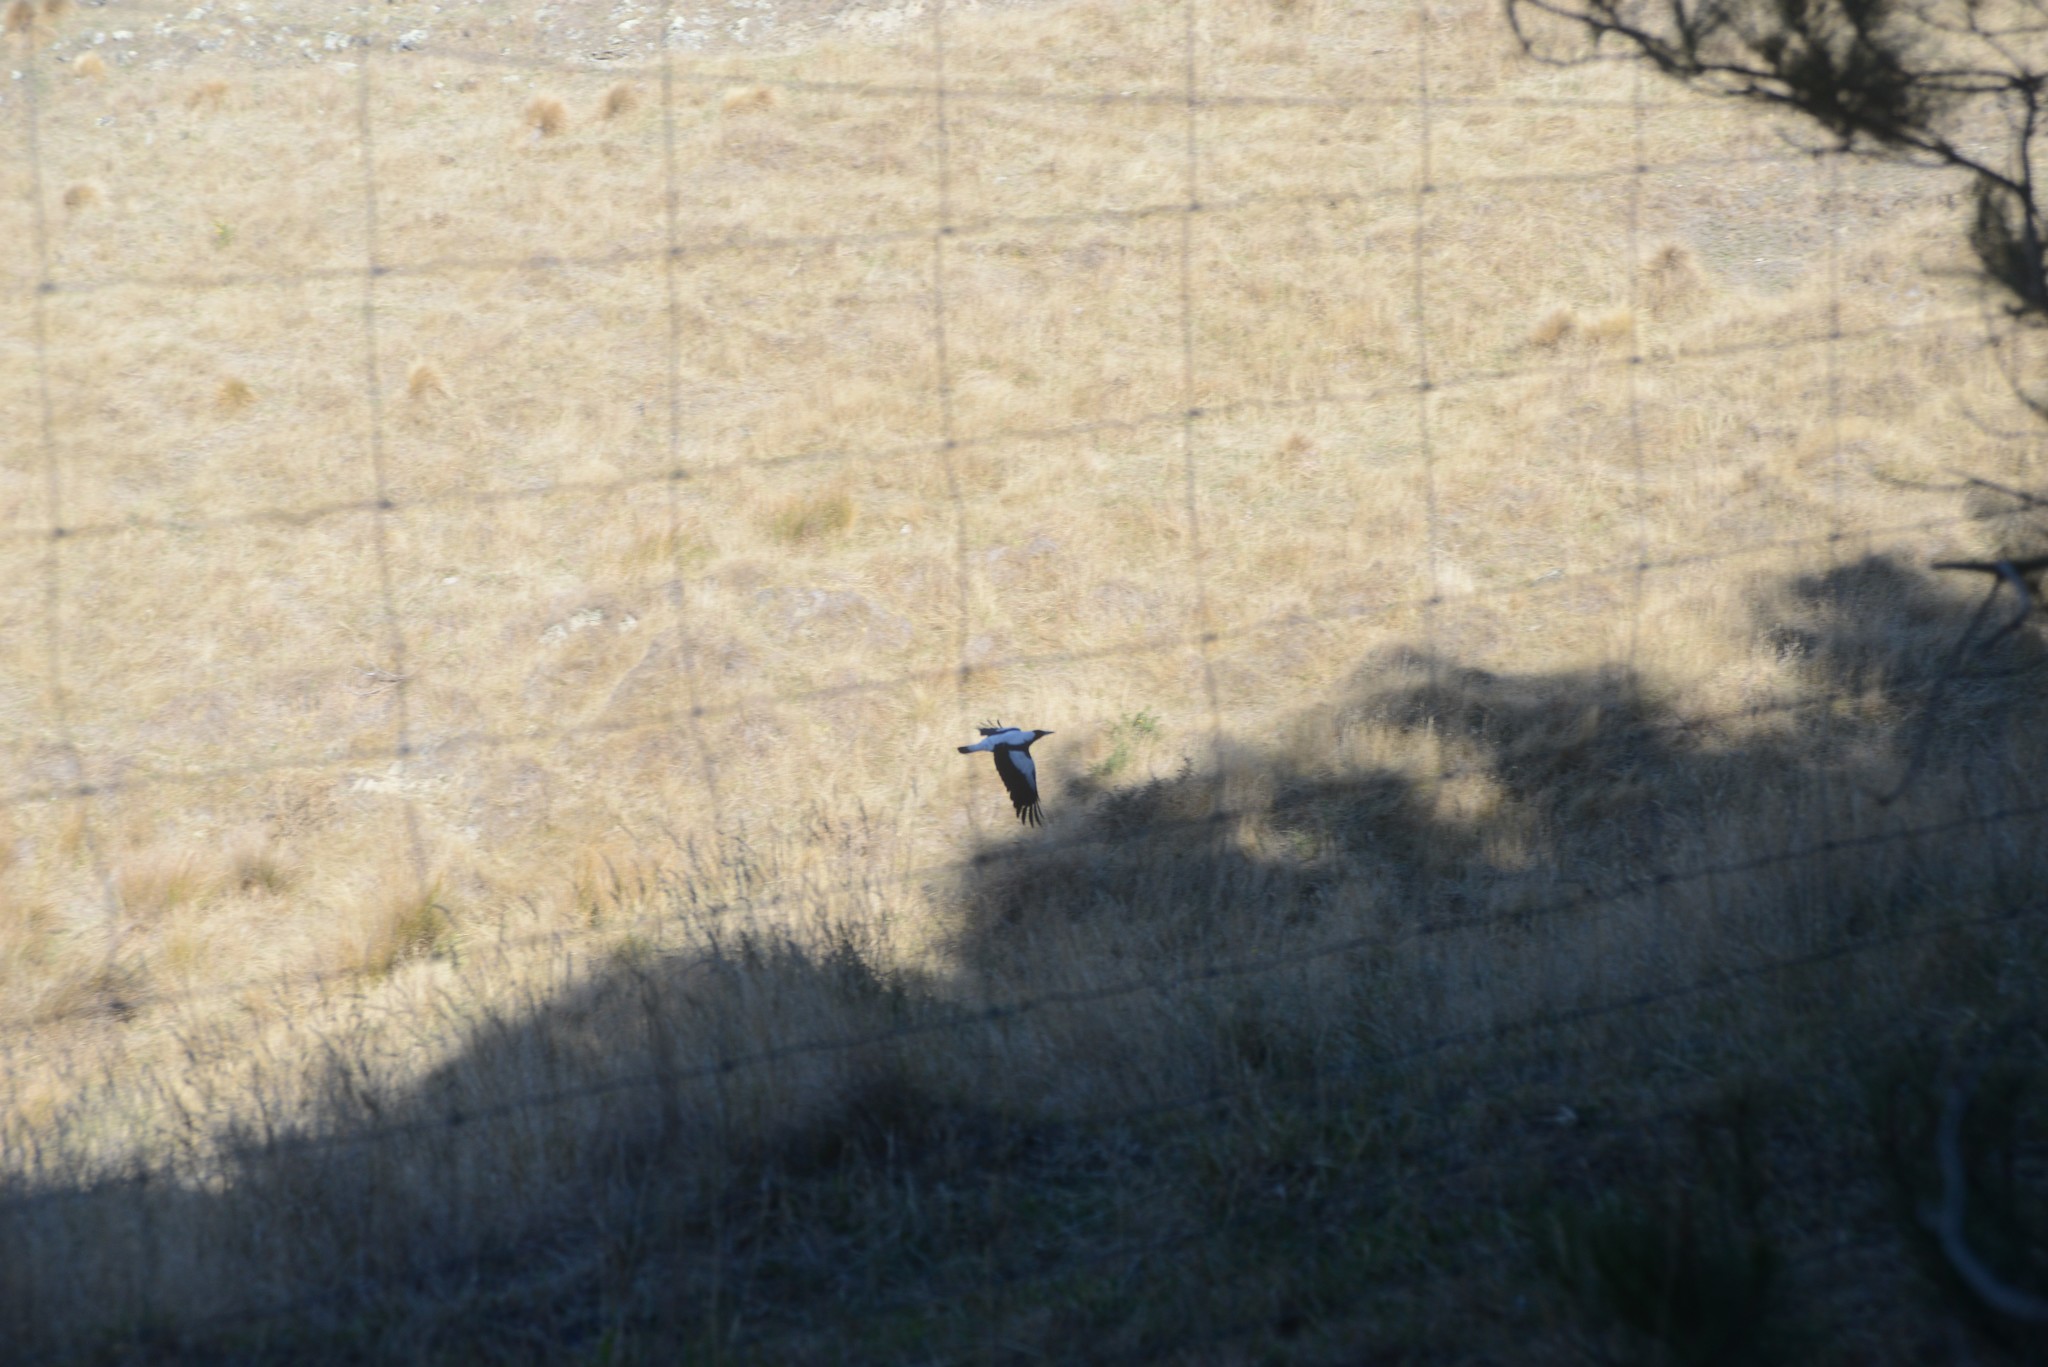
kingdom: Animalia
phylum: Chordata
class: Aves
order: Passeriformes
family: Cracticidae
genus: Gymnorhina
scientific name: Gymnorhina tibicen
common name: Australian magpie
